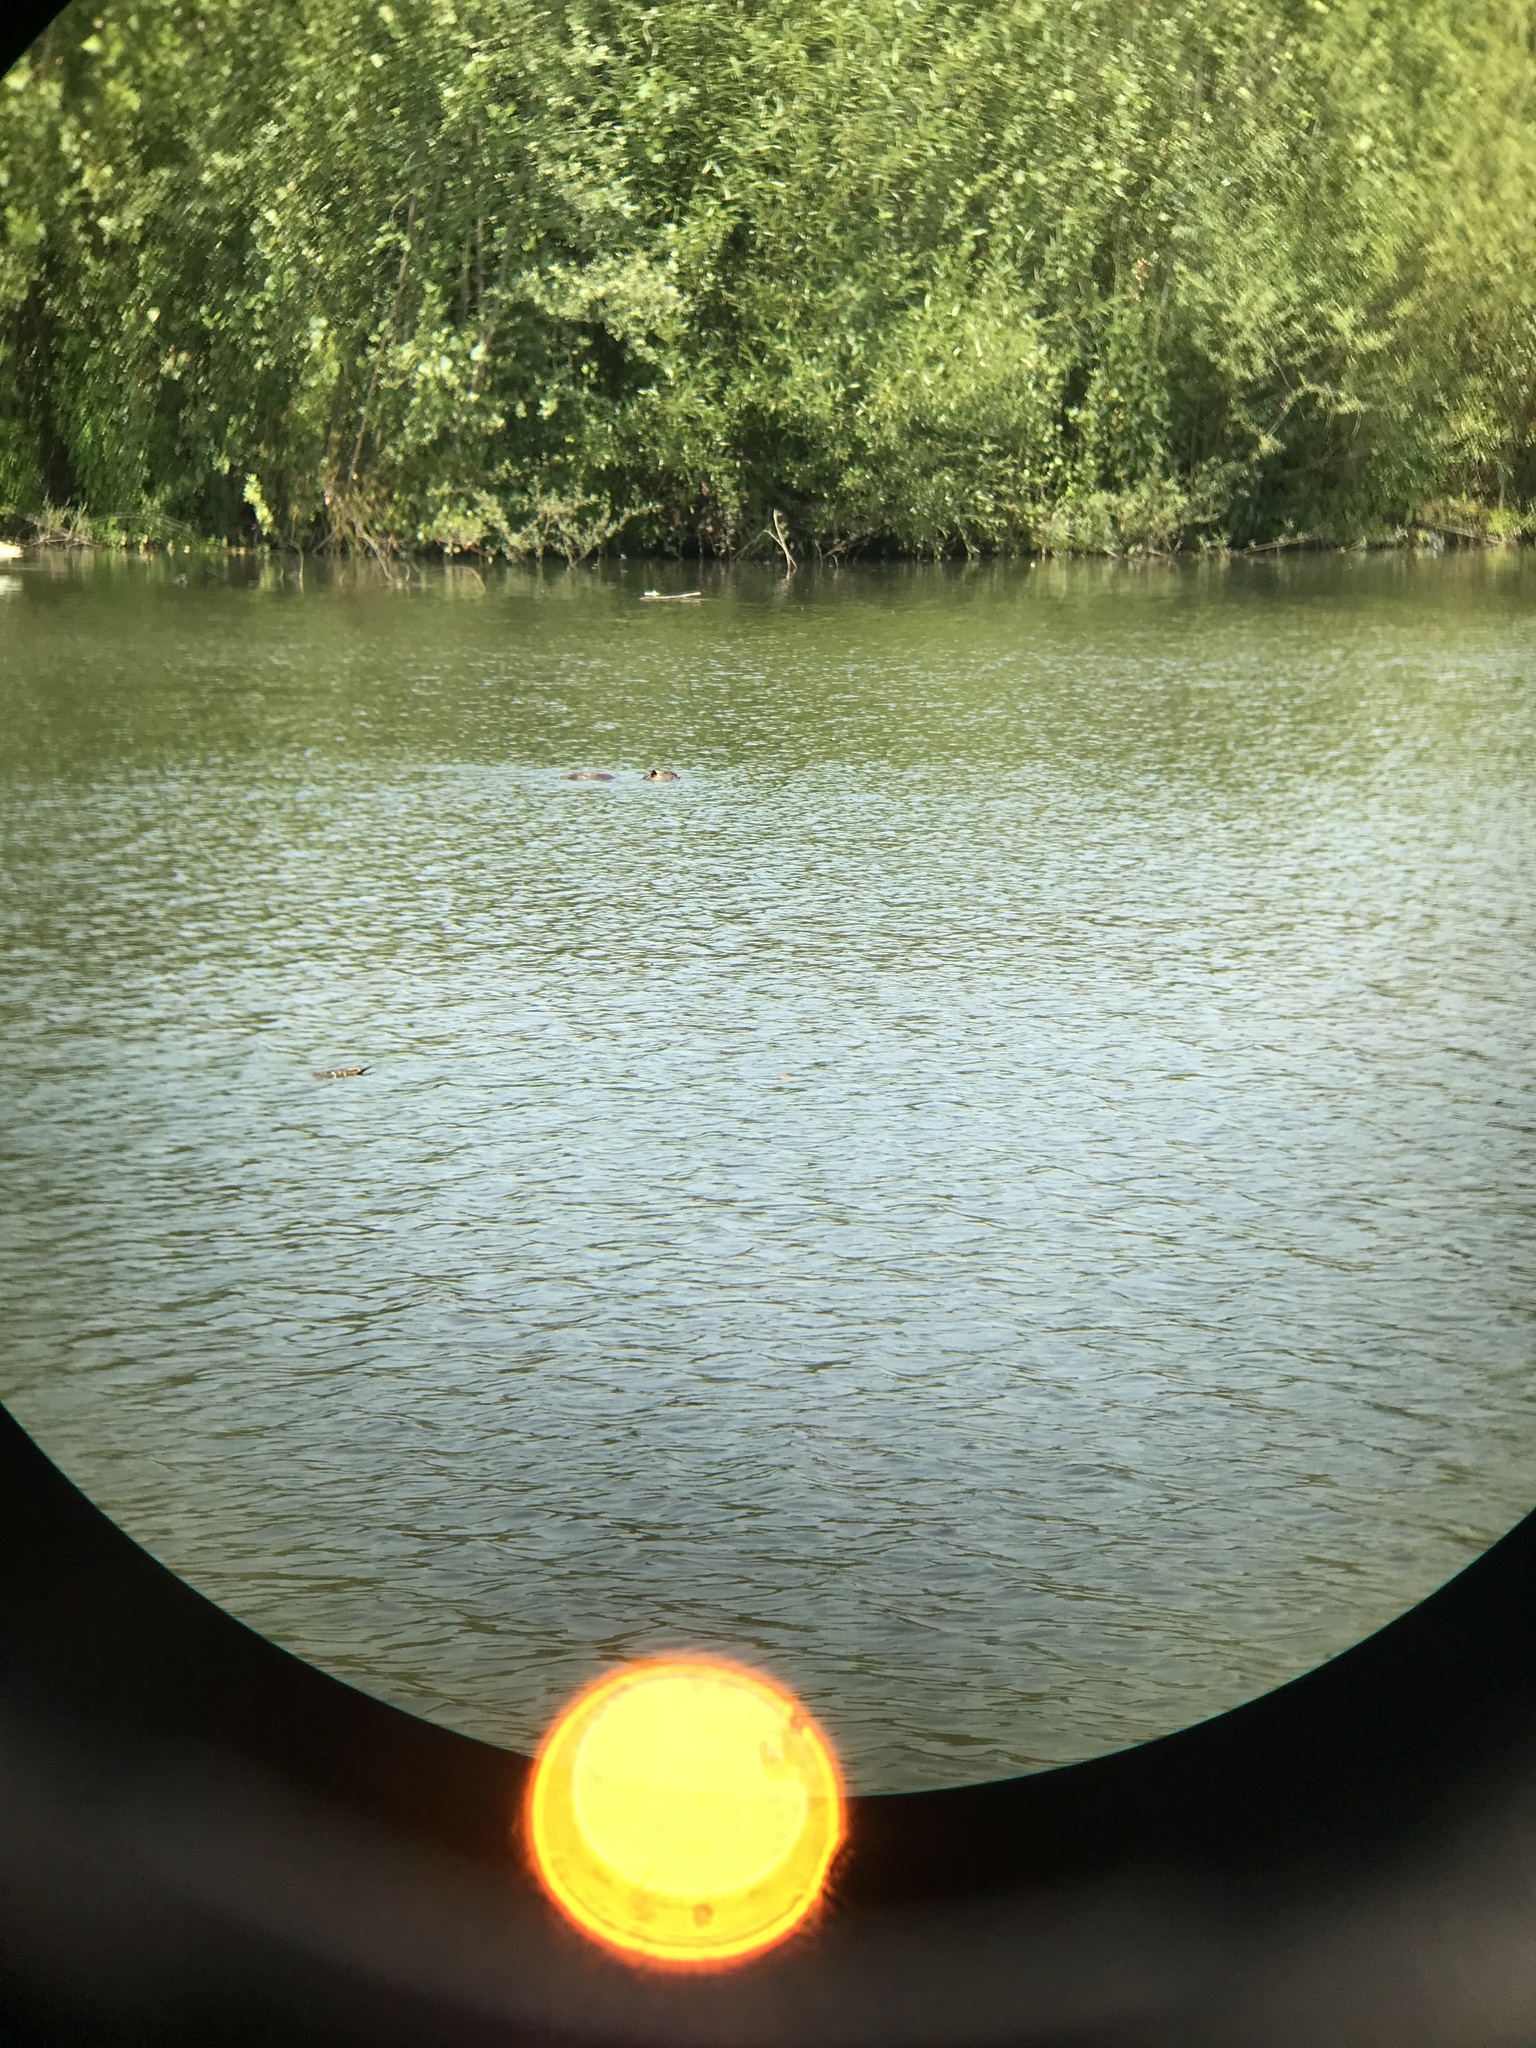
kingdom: Animalia
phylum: Chordata
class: Mammalia
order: Rodentia
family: Myocastoridae
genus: Myocastor
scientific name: Myocastor coypus
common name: Coypu
